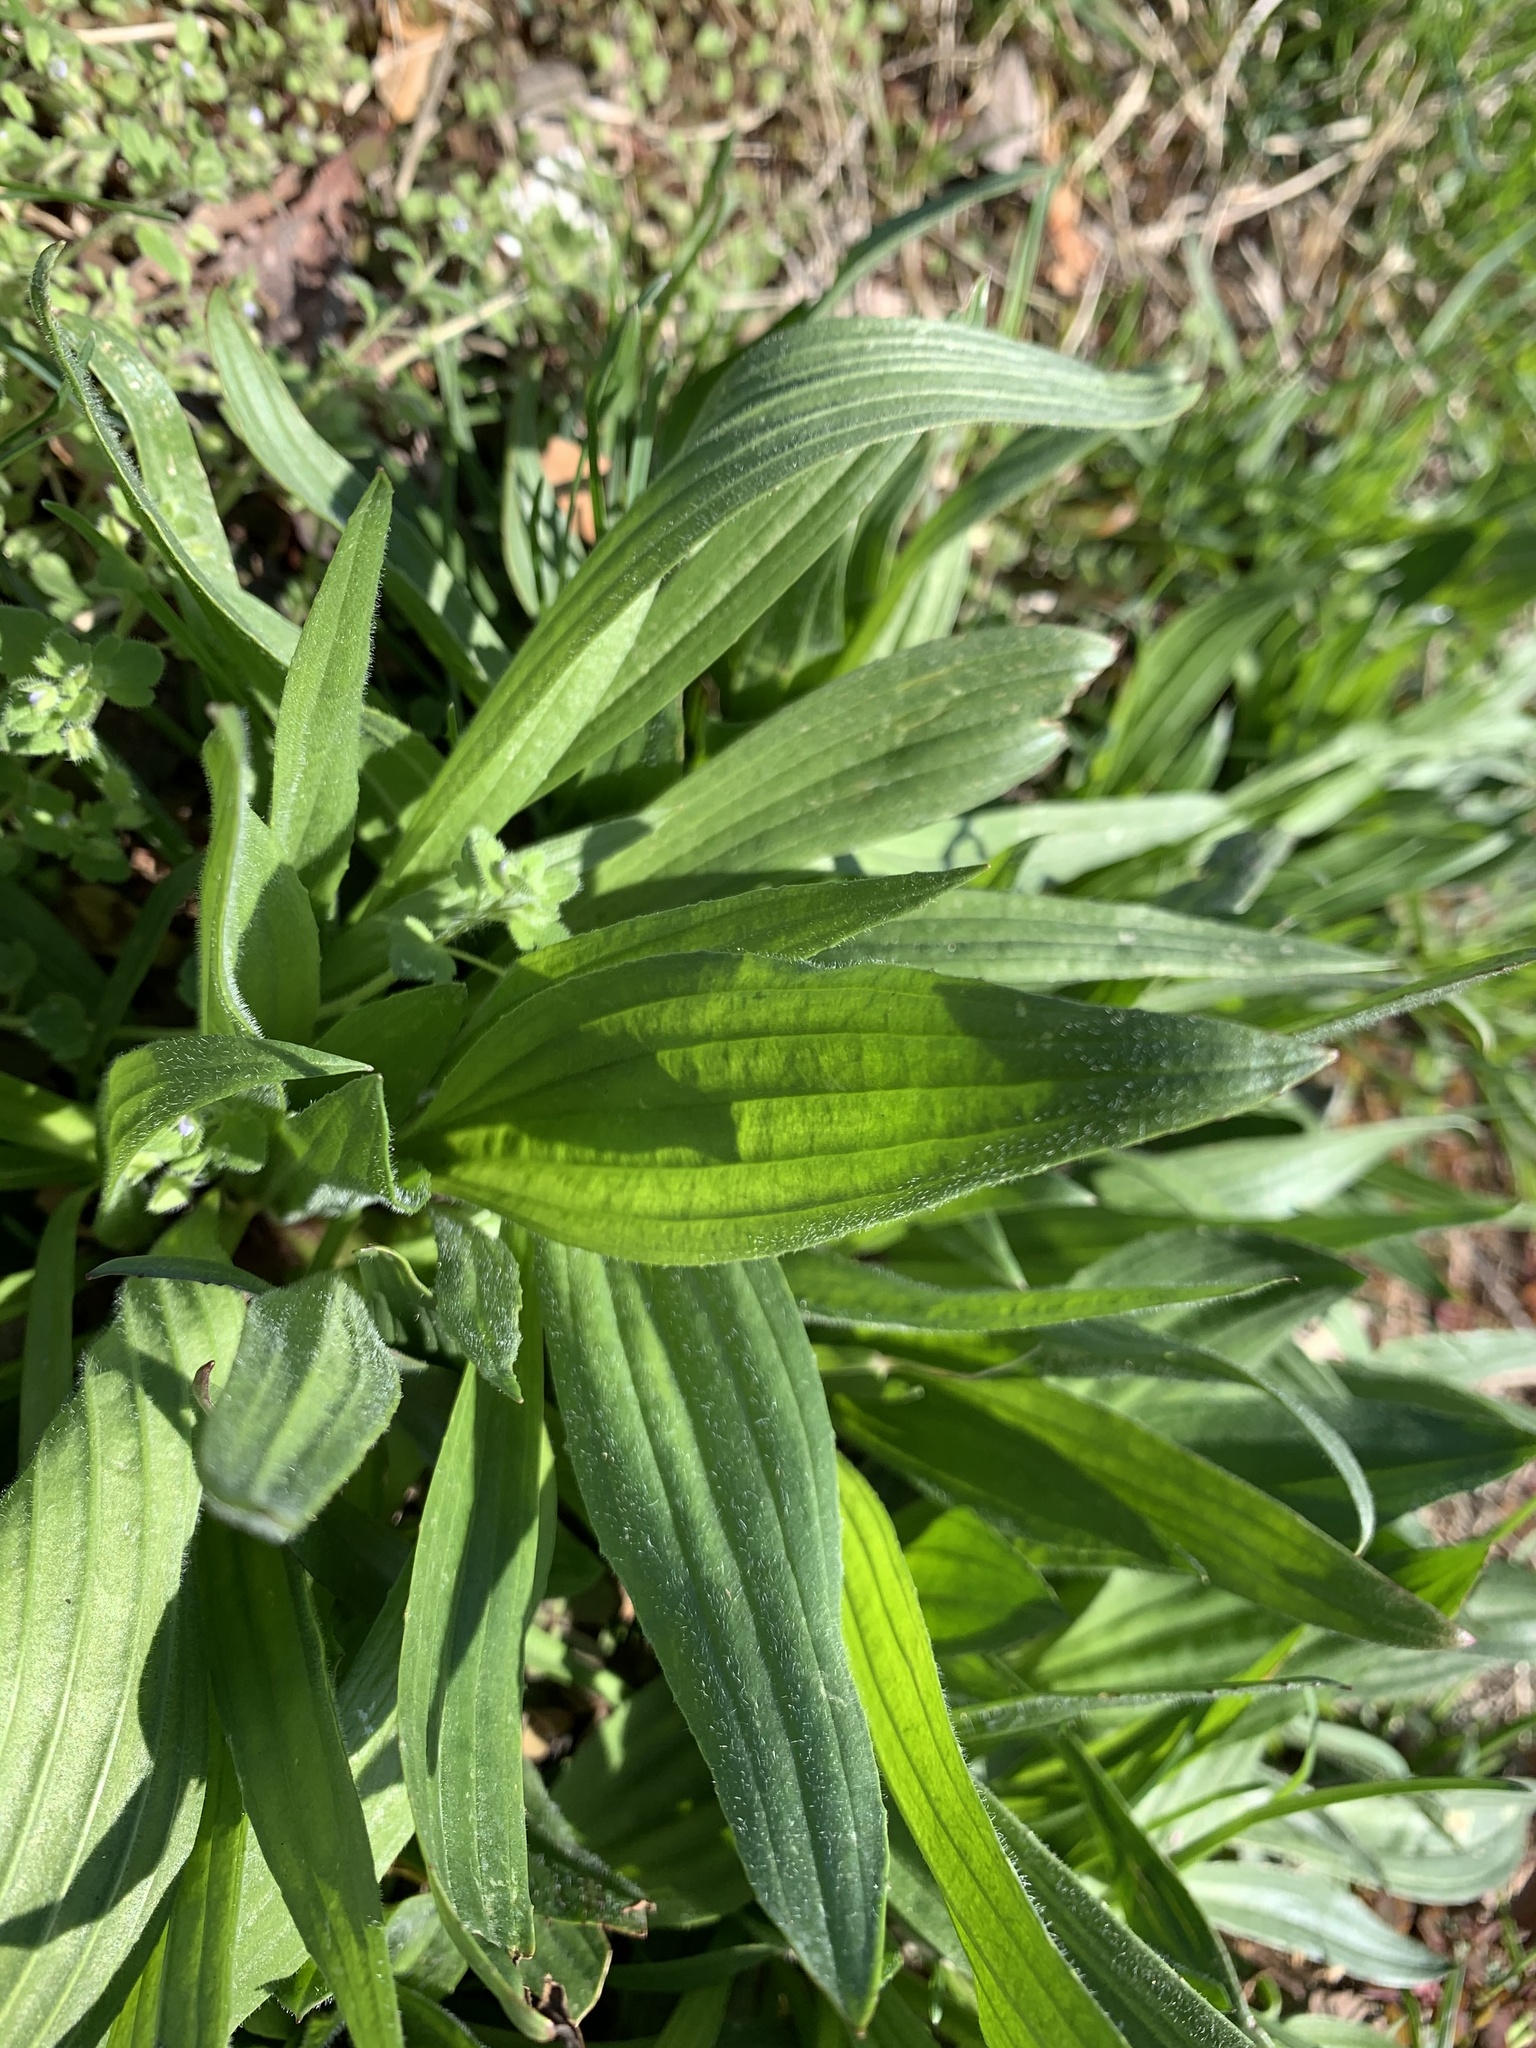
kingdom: Plantae
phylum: Tracheophyta
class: Magnoliopsida
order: Lamiales
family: Plantaginaceae
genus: Plantago
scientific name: Plantago lanceolata
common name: Ribwort plantain
